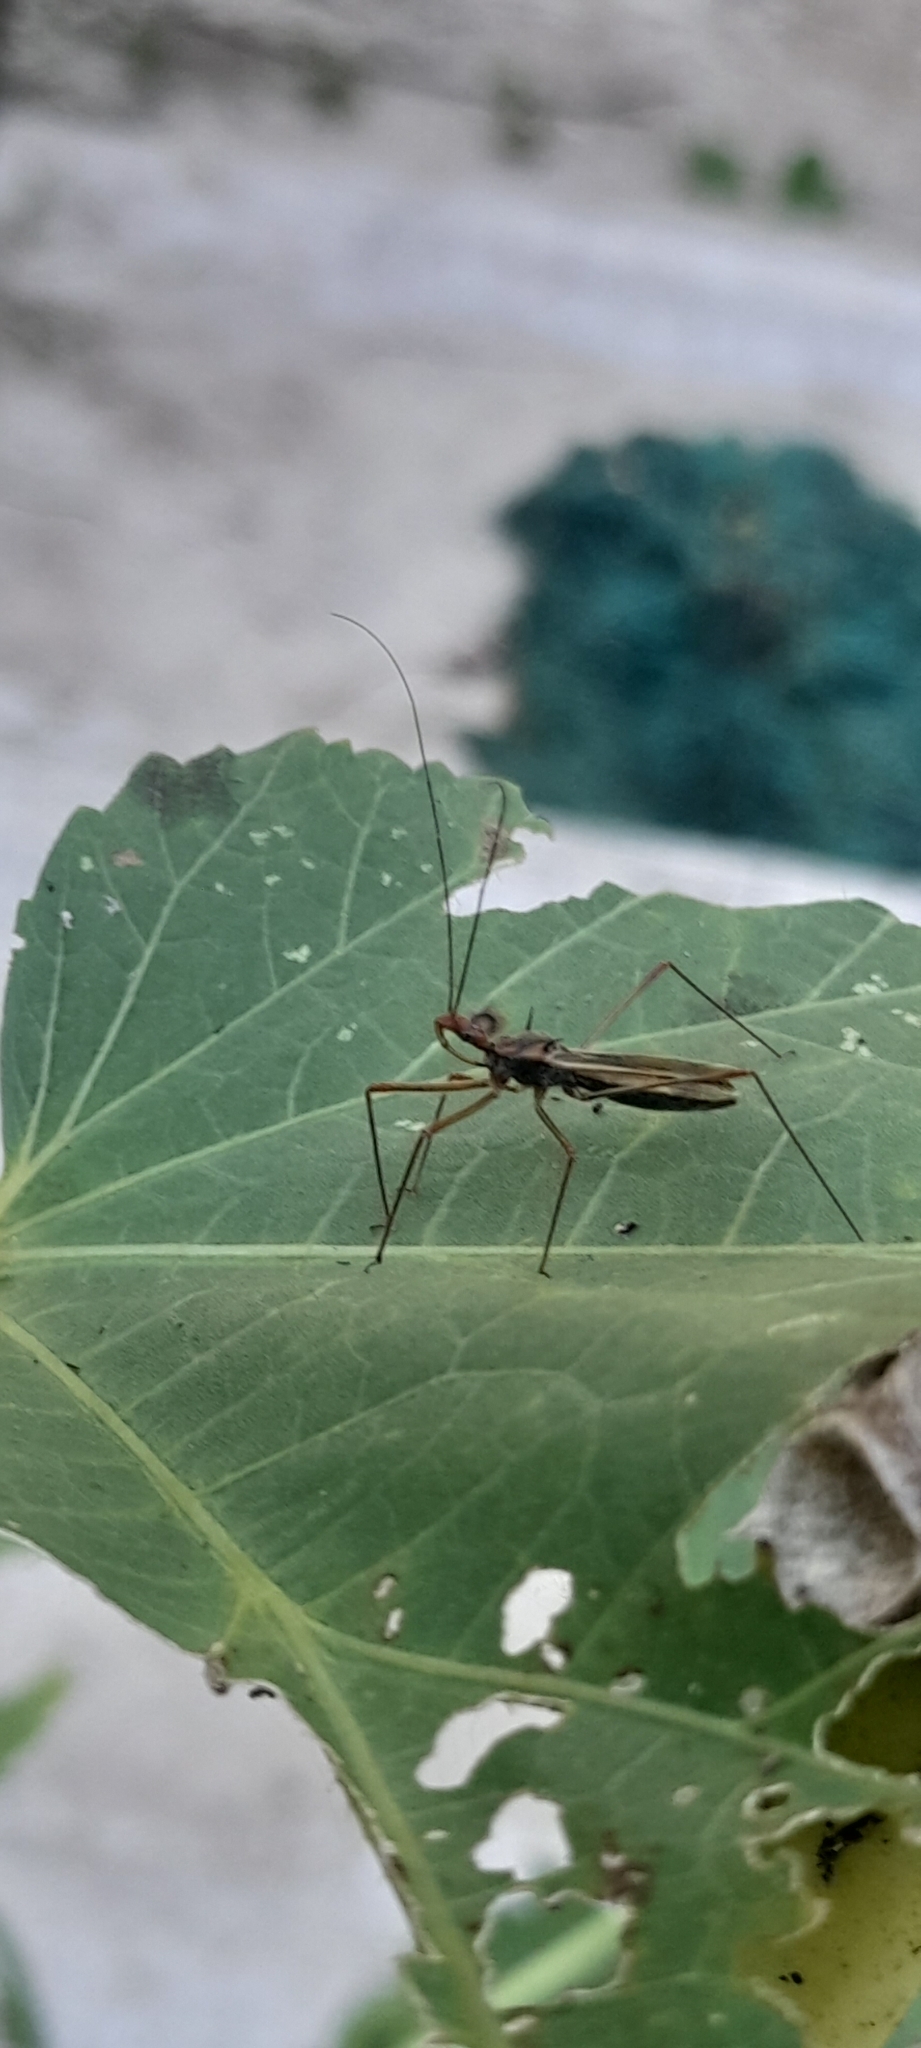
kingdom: Animalia
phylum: Arthropoda
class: Insecta
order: Hemiptera
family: Reduviidae
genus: Euagoras
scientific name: Euagoras plagiatus
